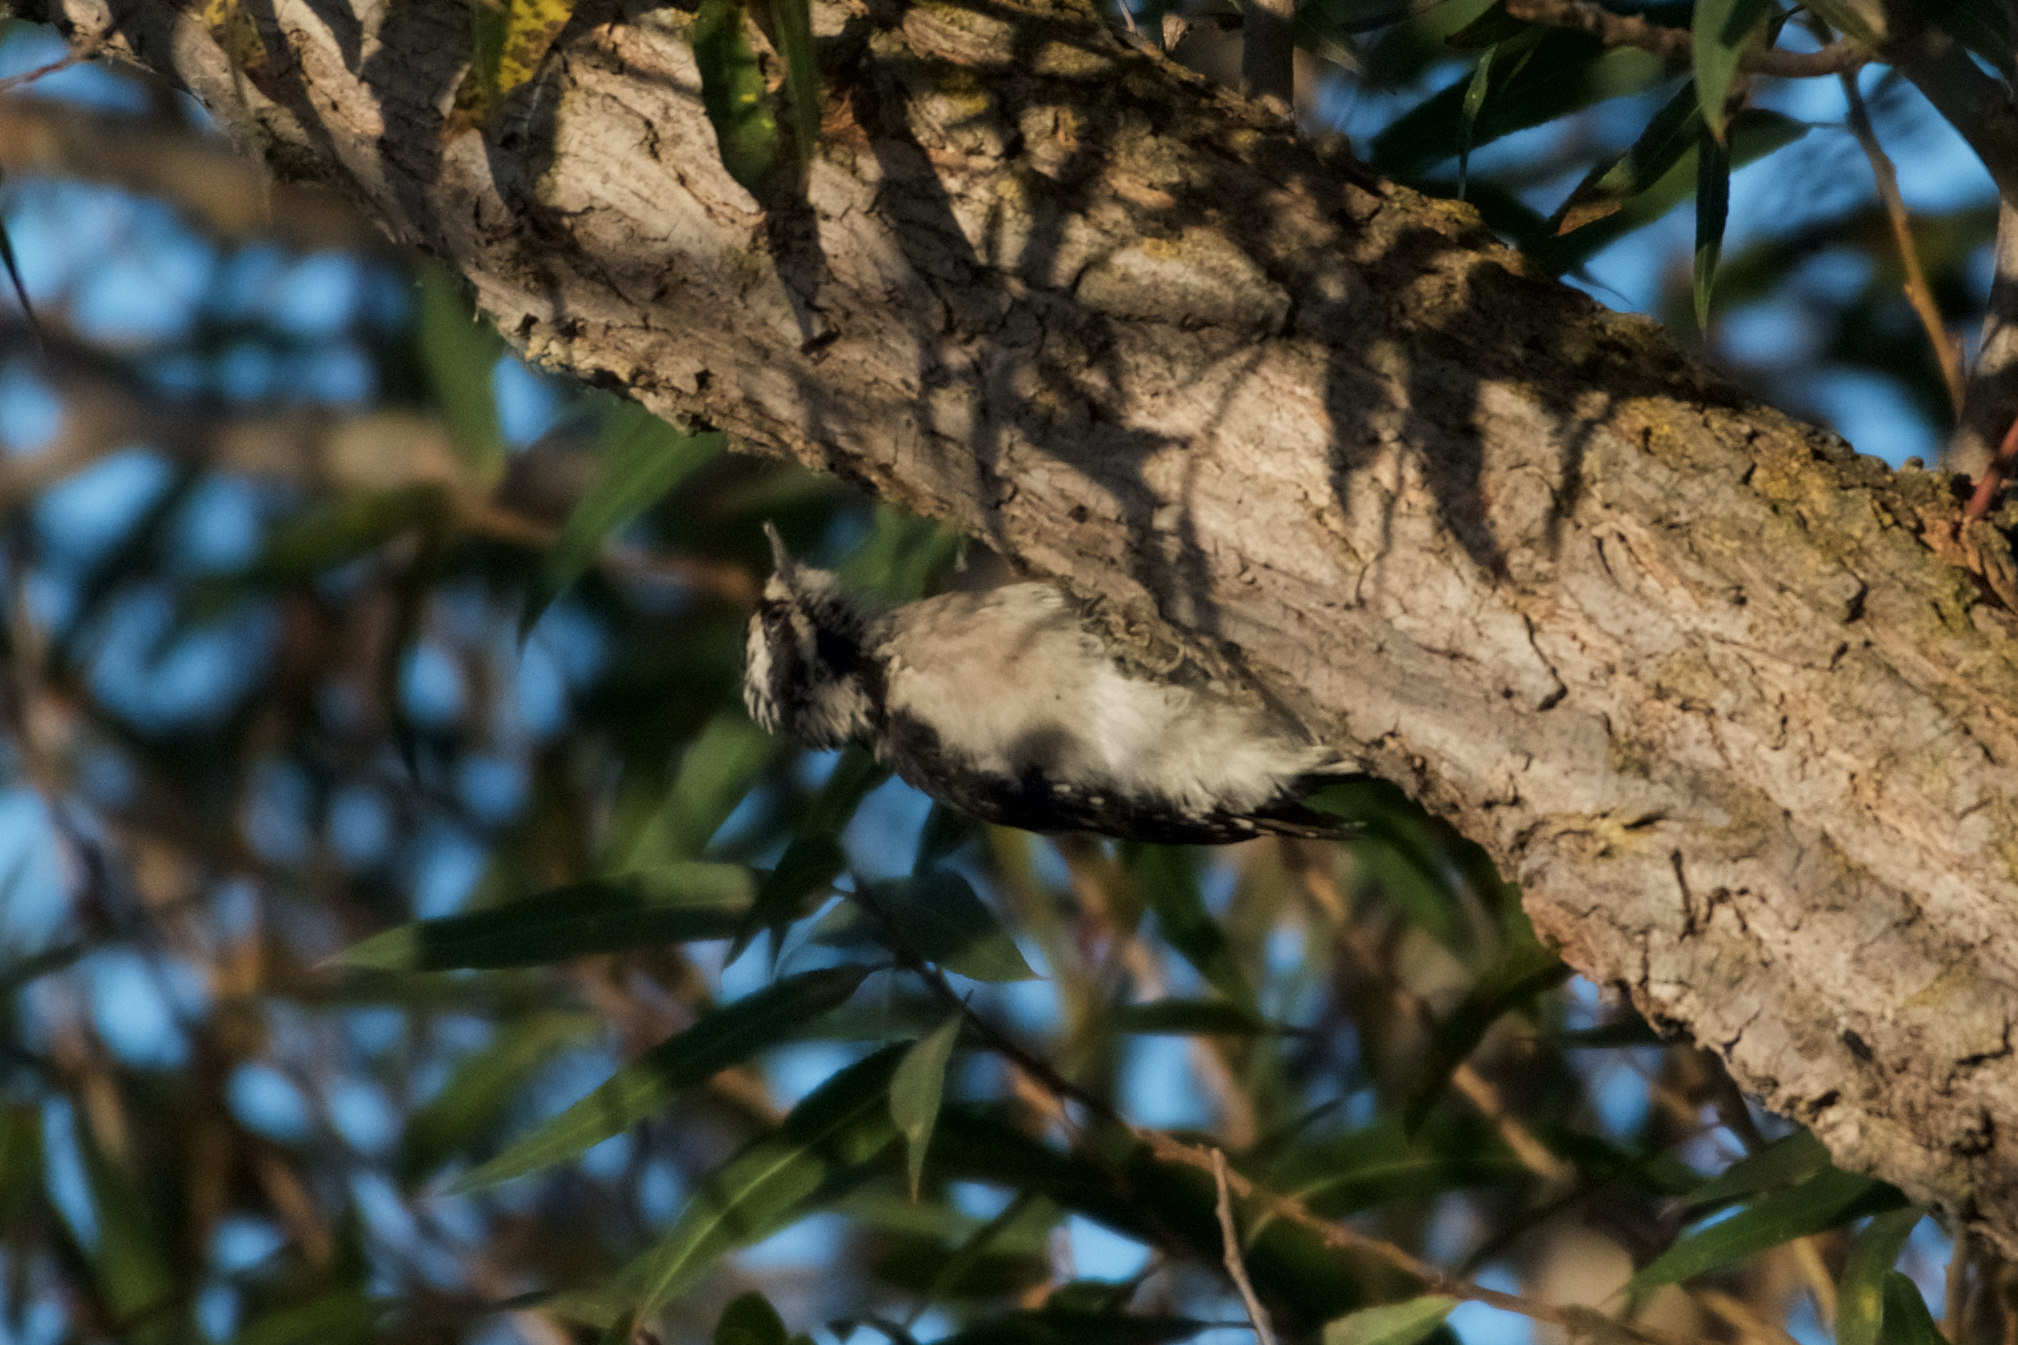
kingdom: Animalia
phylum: Chordata
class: Aves
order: Piciformes
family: Picidae
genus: Dryobates
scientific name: Dryobates pubescens
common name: Downy woodpecker
